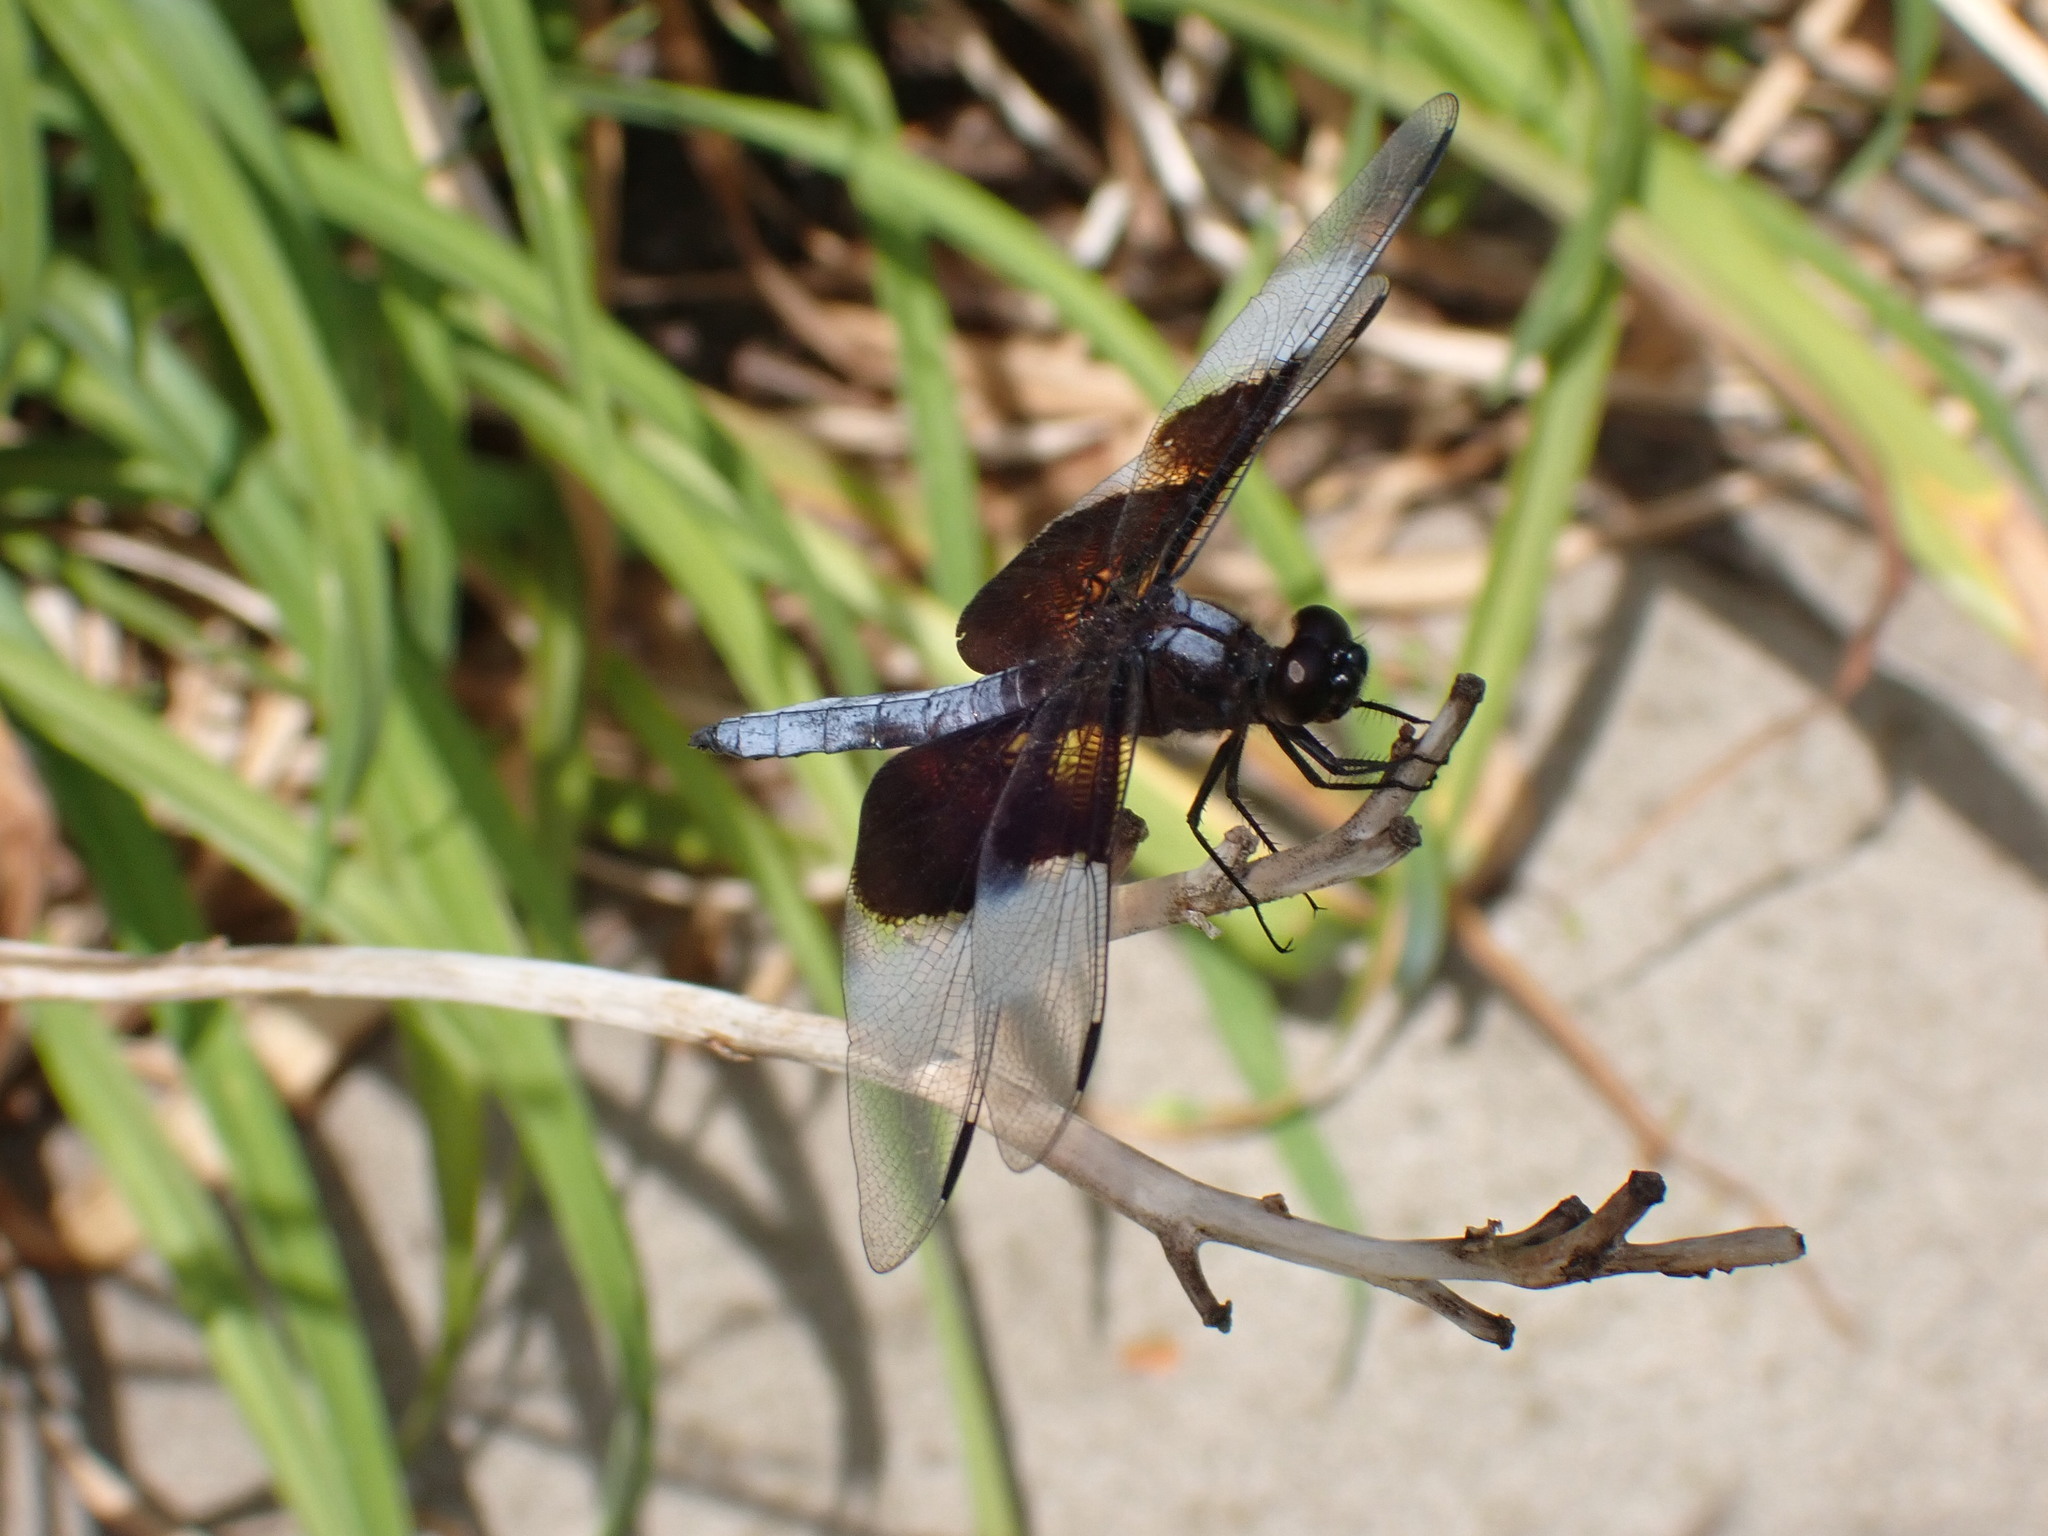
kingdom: Animalia
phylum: Arthropoda
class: Insecta
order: Odonata
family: Libellulidae
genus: Libellula
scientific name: Libellula luctuosa
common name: Widow skimmer
